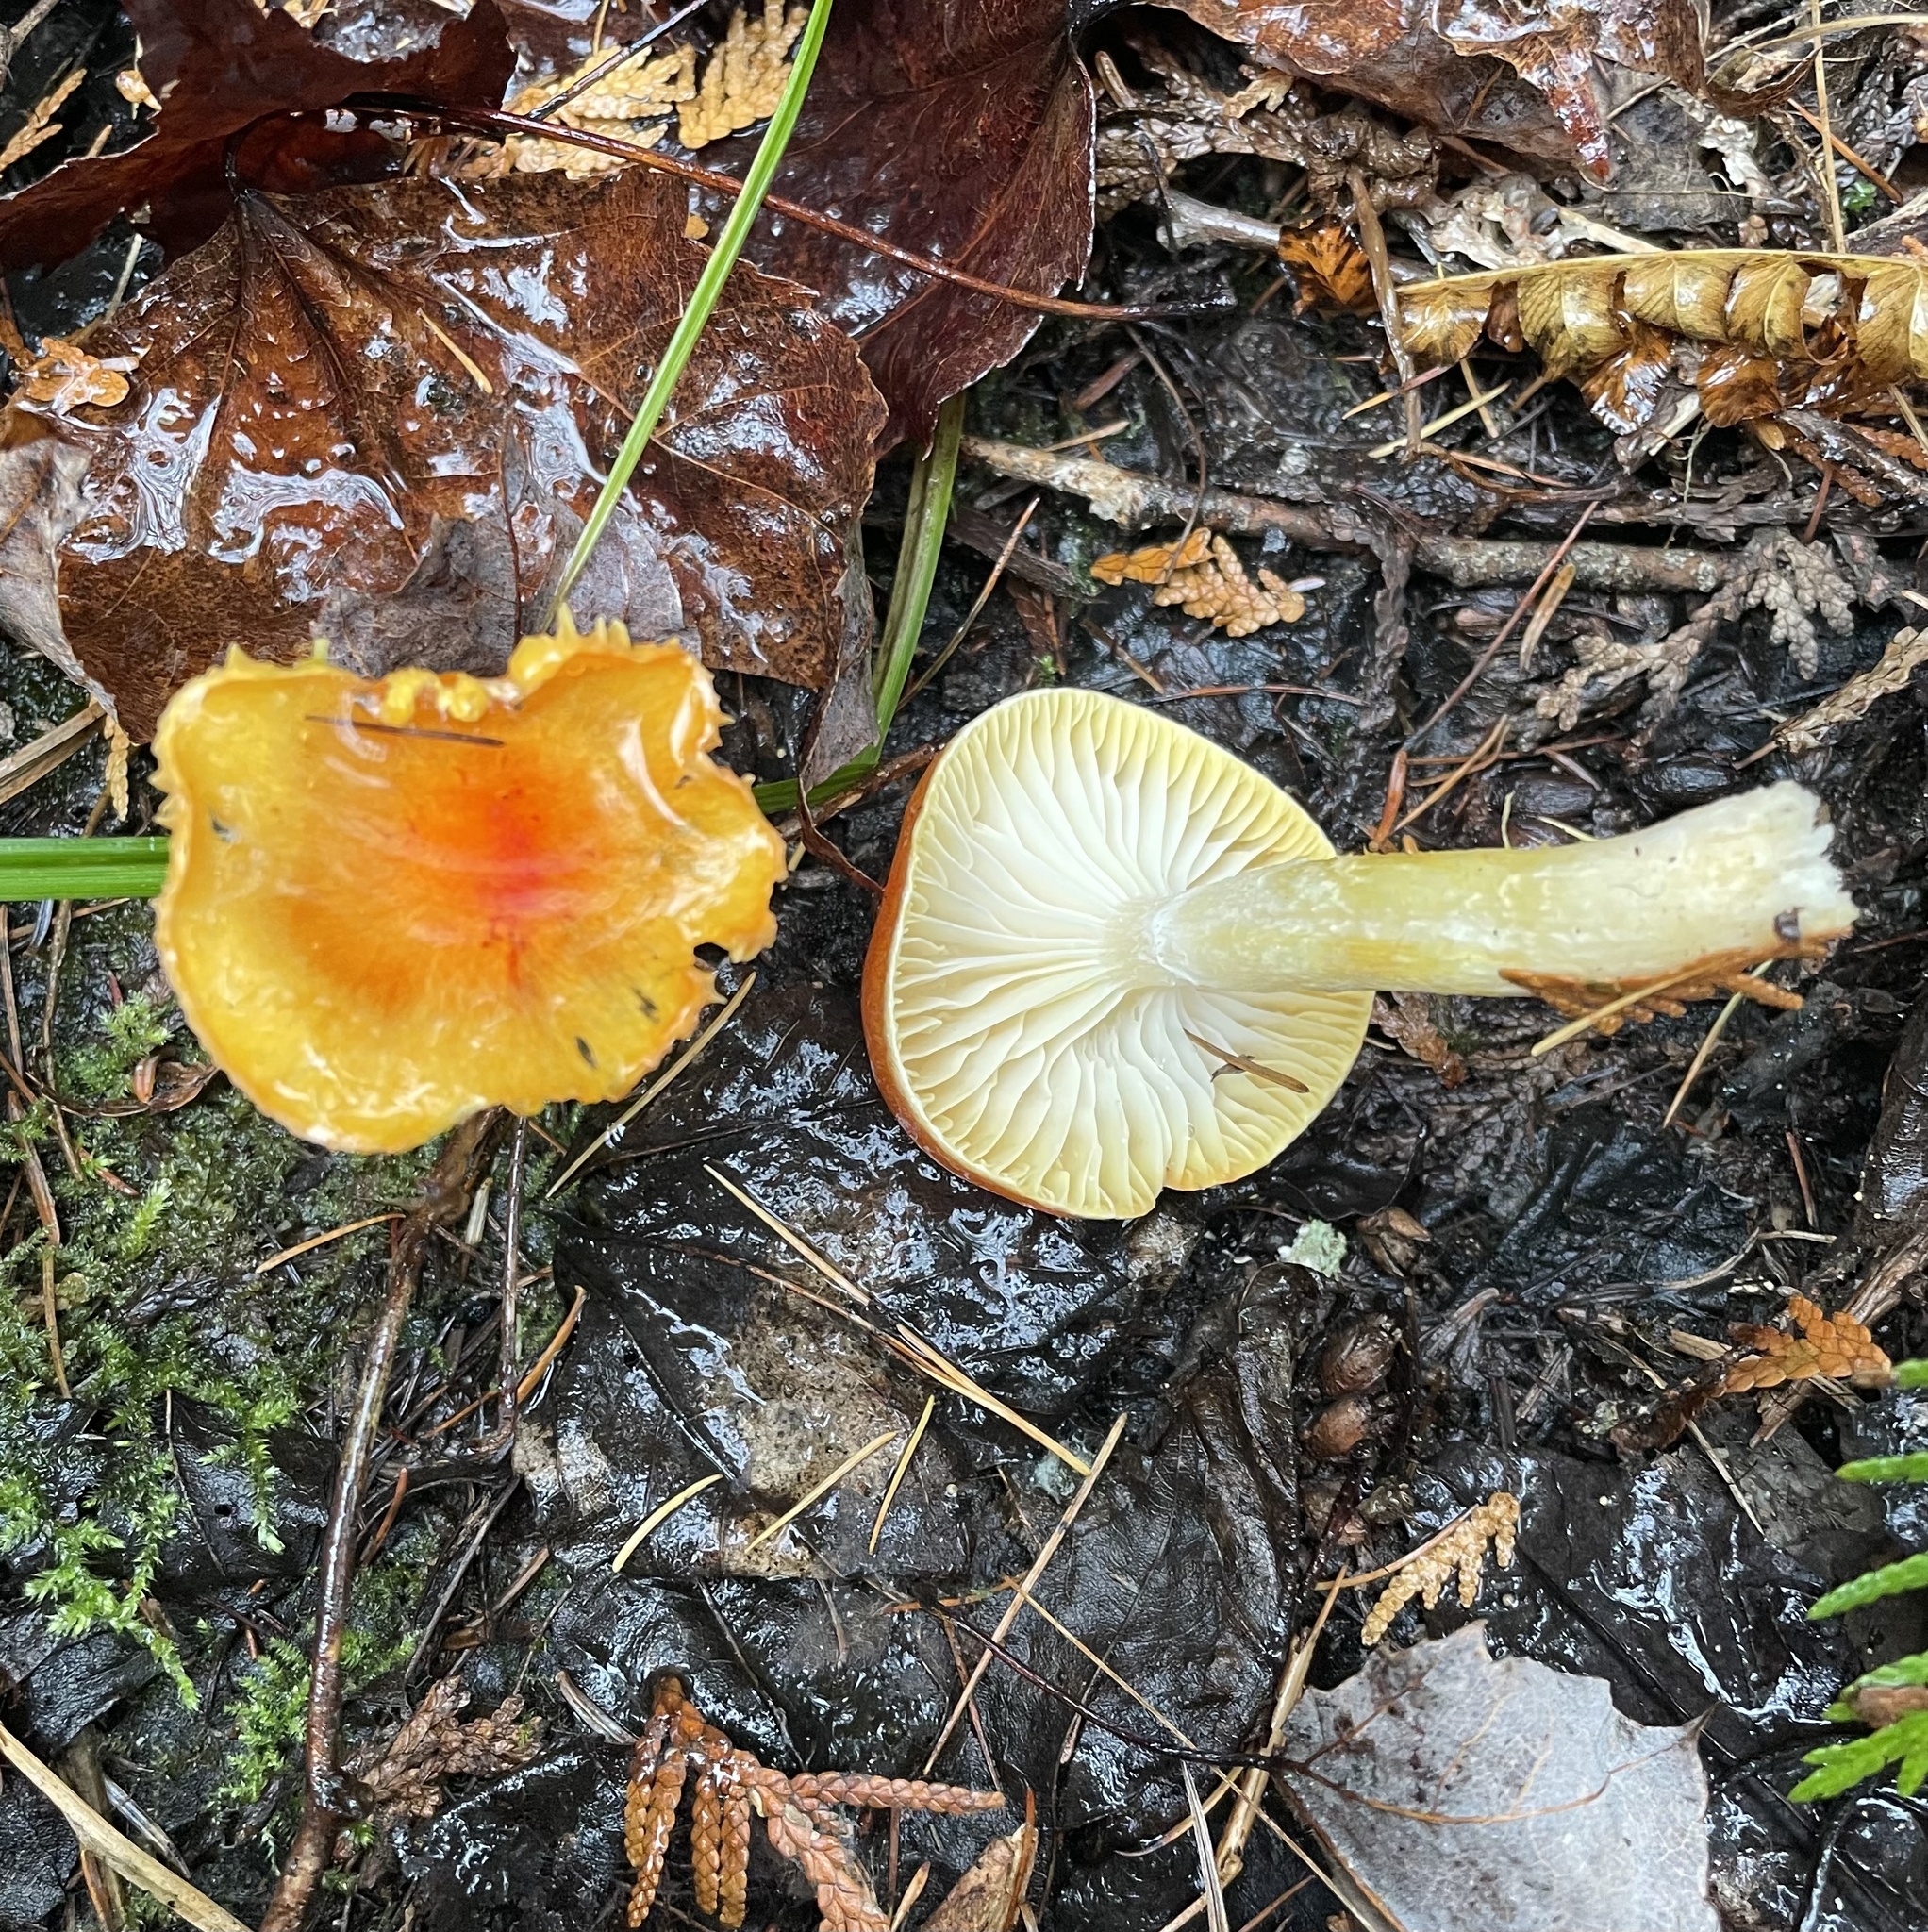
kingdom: Fungi
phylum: Basidiomycota
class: Agaricomycetes
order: Agaricales
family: Hygrophoraceae
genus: Hygrophorus
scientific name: Hygrophorus speciosus
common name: Splendid woodwax
